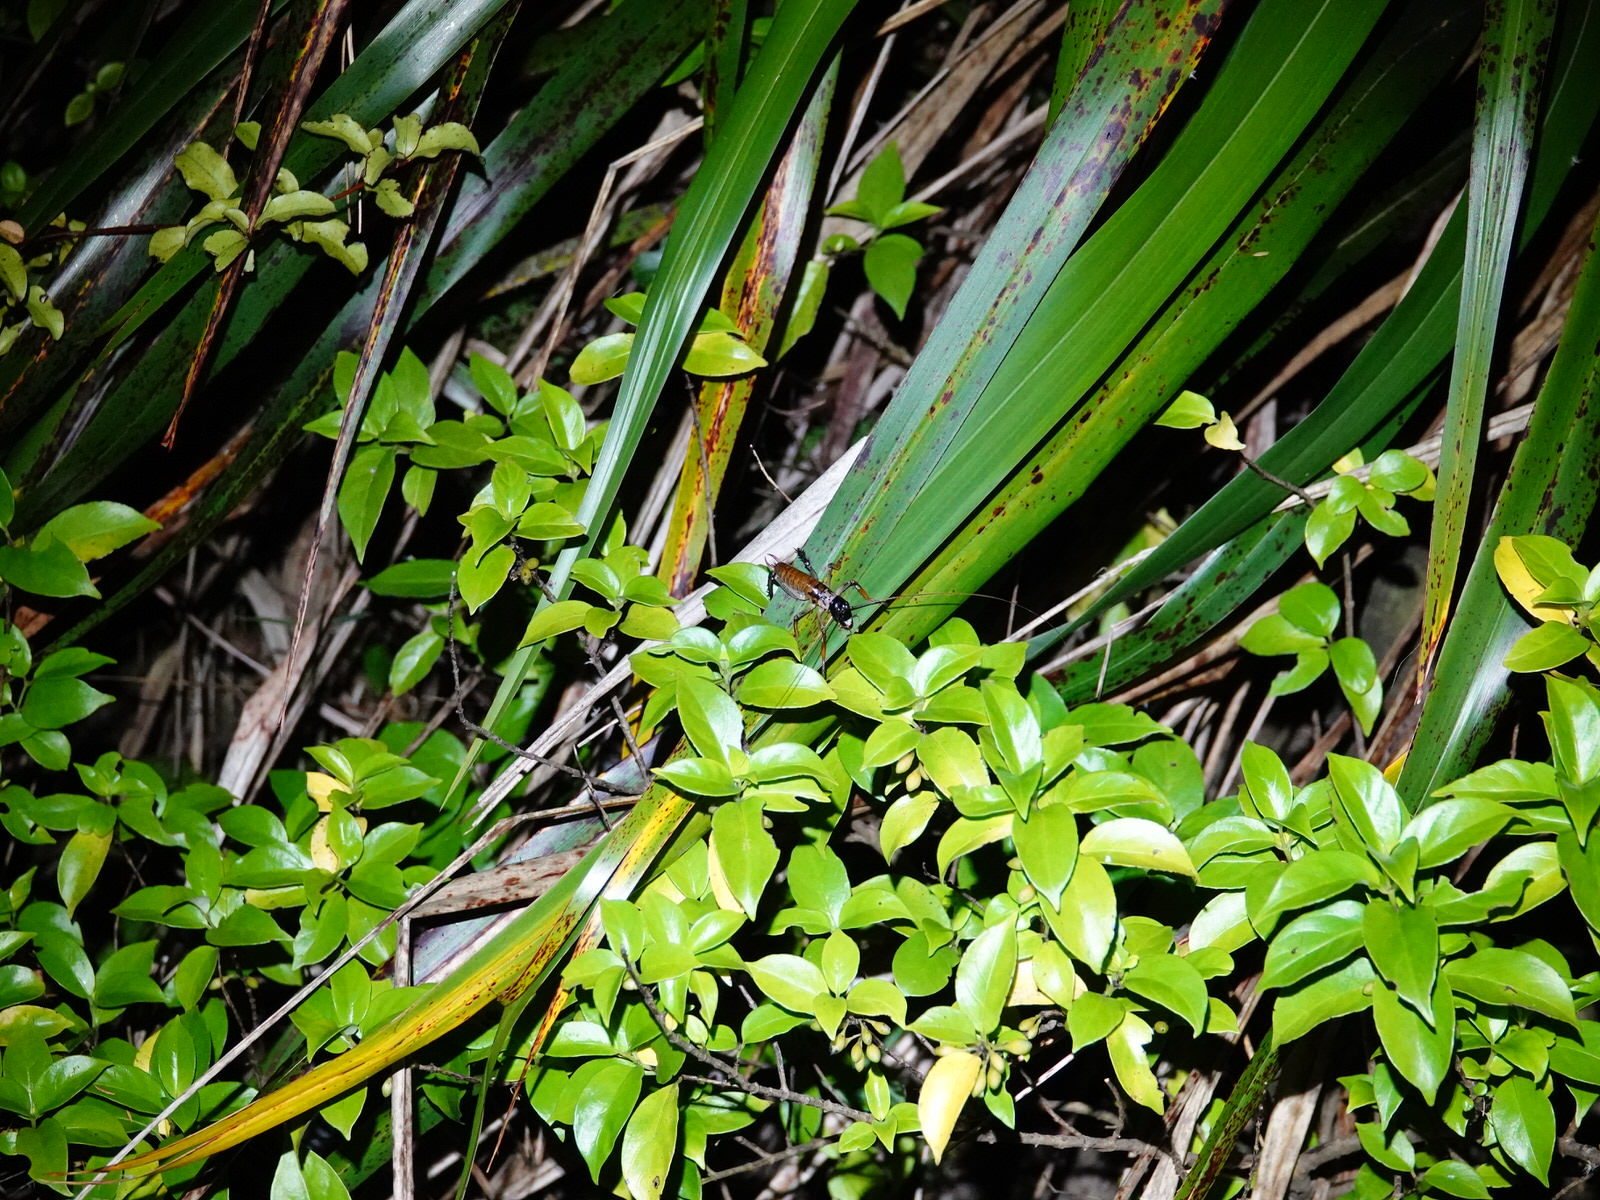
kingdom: Animalia
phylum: Arthropoda
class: Insecta
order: Orthoptera
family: Anostostomatidae
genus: Hemideina
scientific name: Hemideina thoracica
